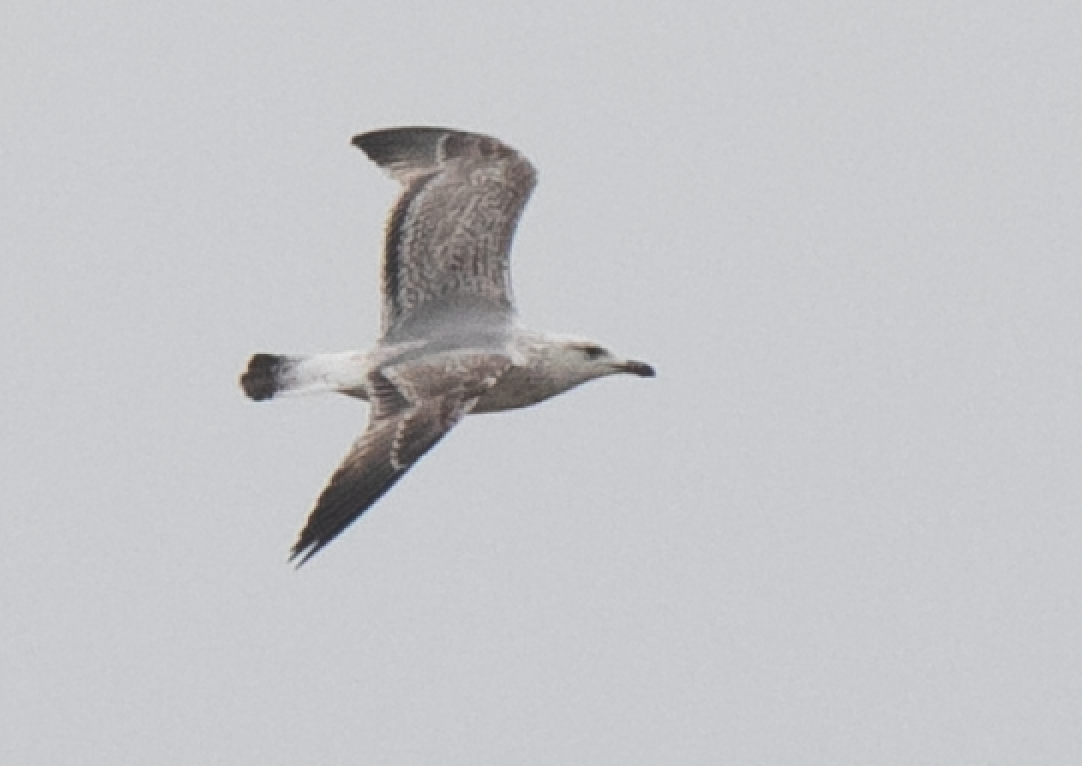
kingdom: Animalia
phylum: Chordata
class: Aves
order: Charadriiformes
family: Laridae
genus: Larus
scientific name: Larus michahellis
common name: Yellow-legged gull
